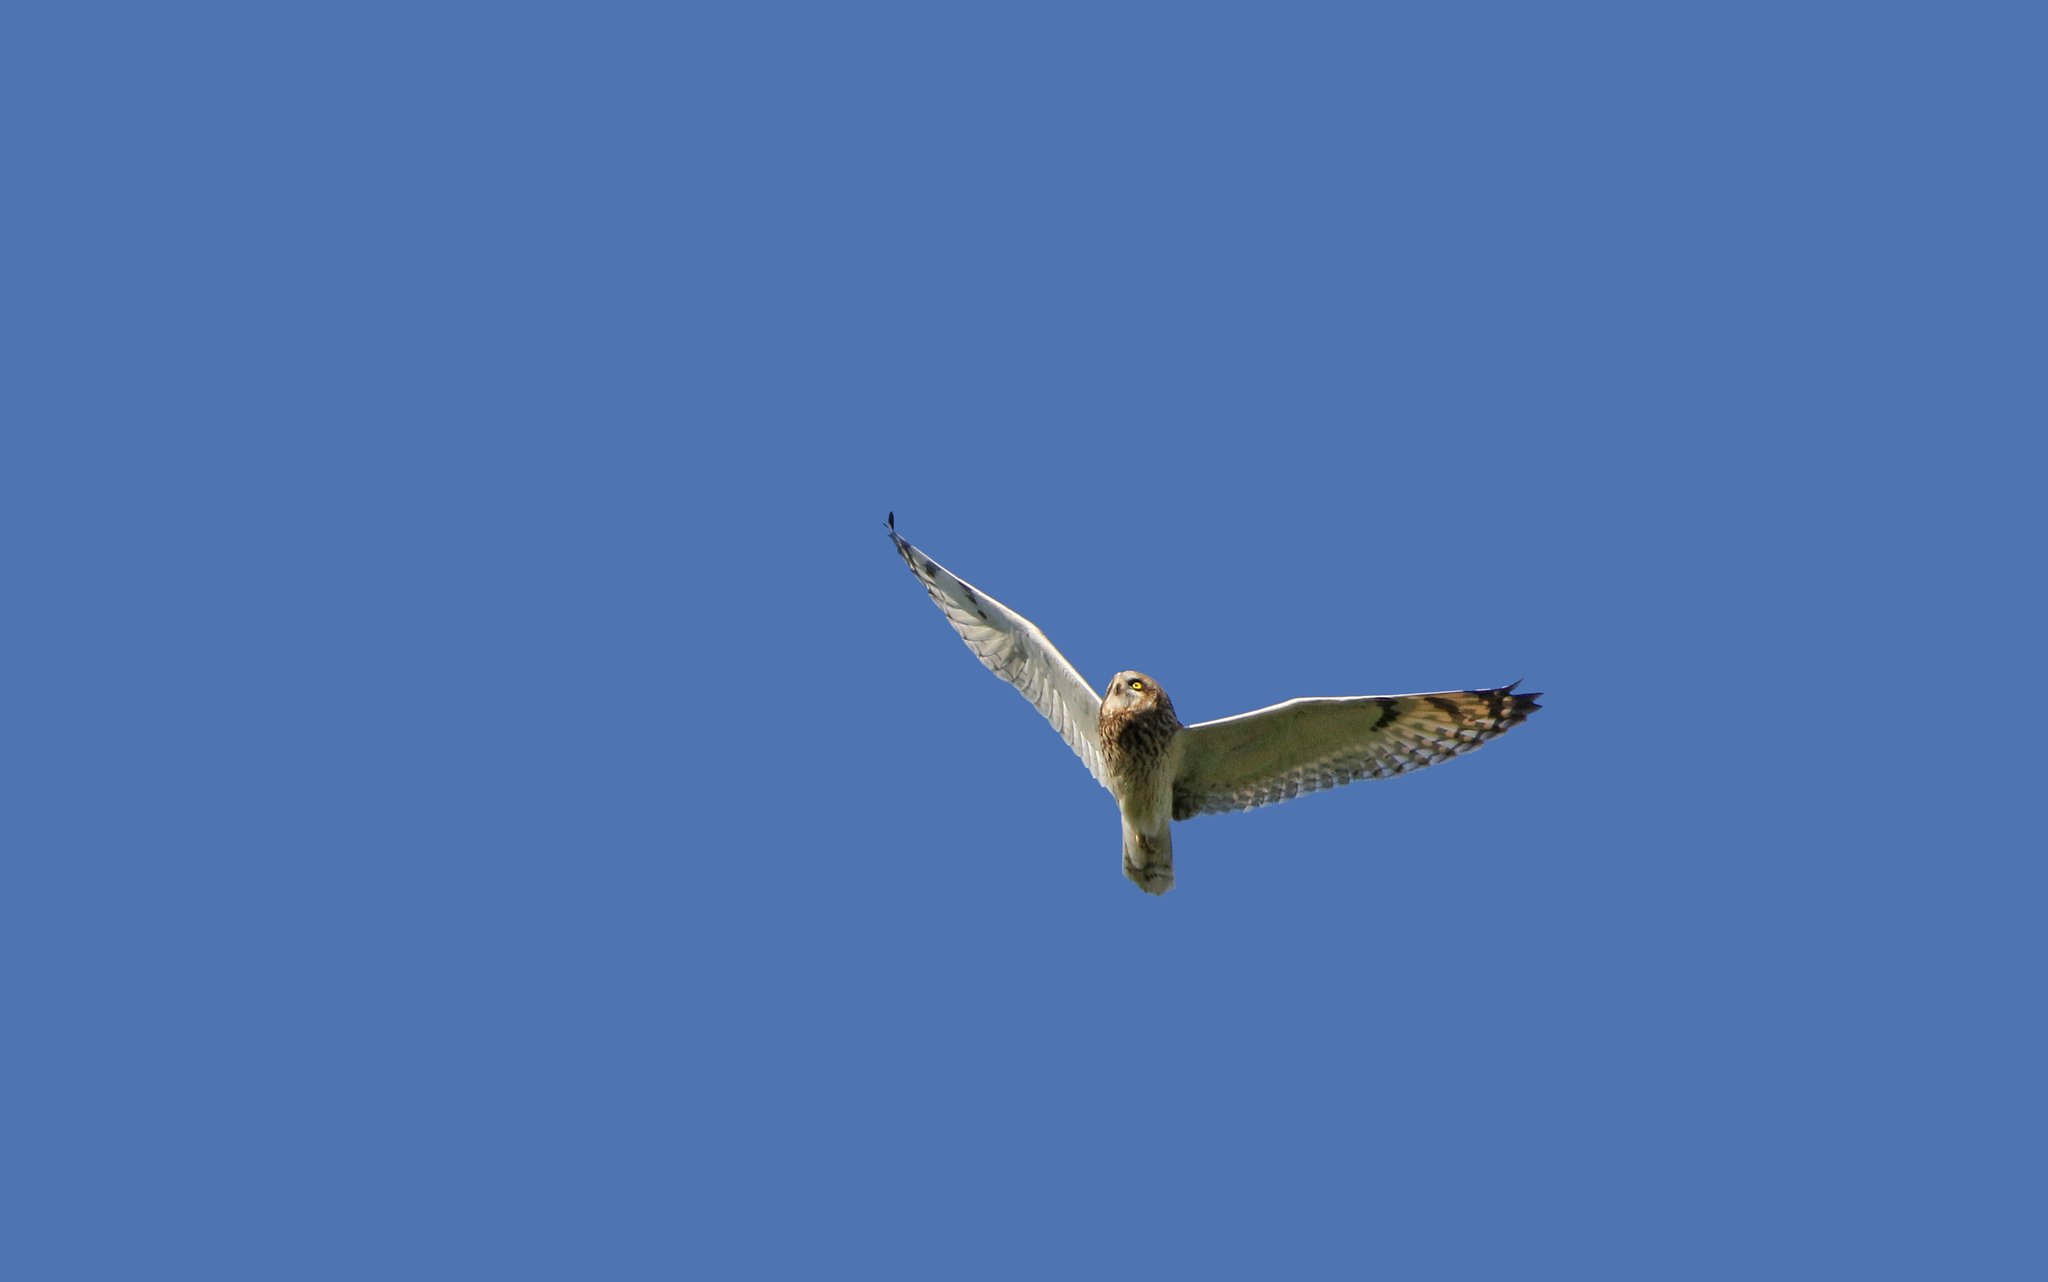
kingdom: Animalia
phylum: Chordata
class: Aves
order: Strigiformes
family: Strigidae
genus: Asio
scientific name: Asio flammeus
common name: Short-eared owl
